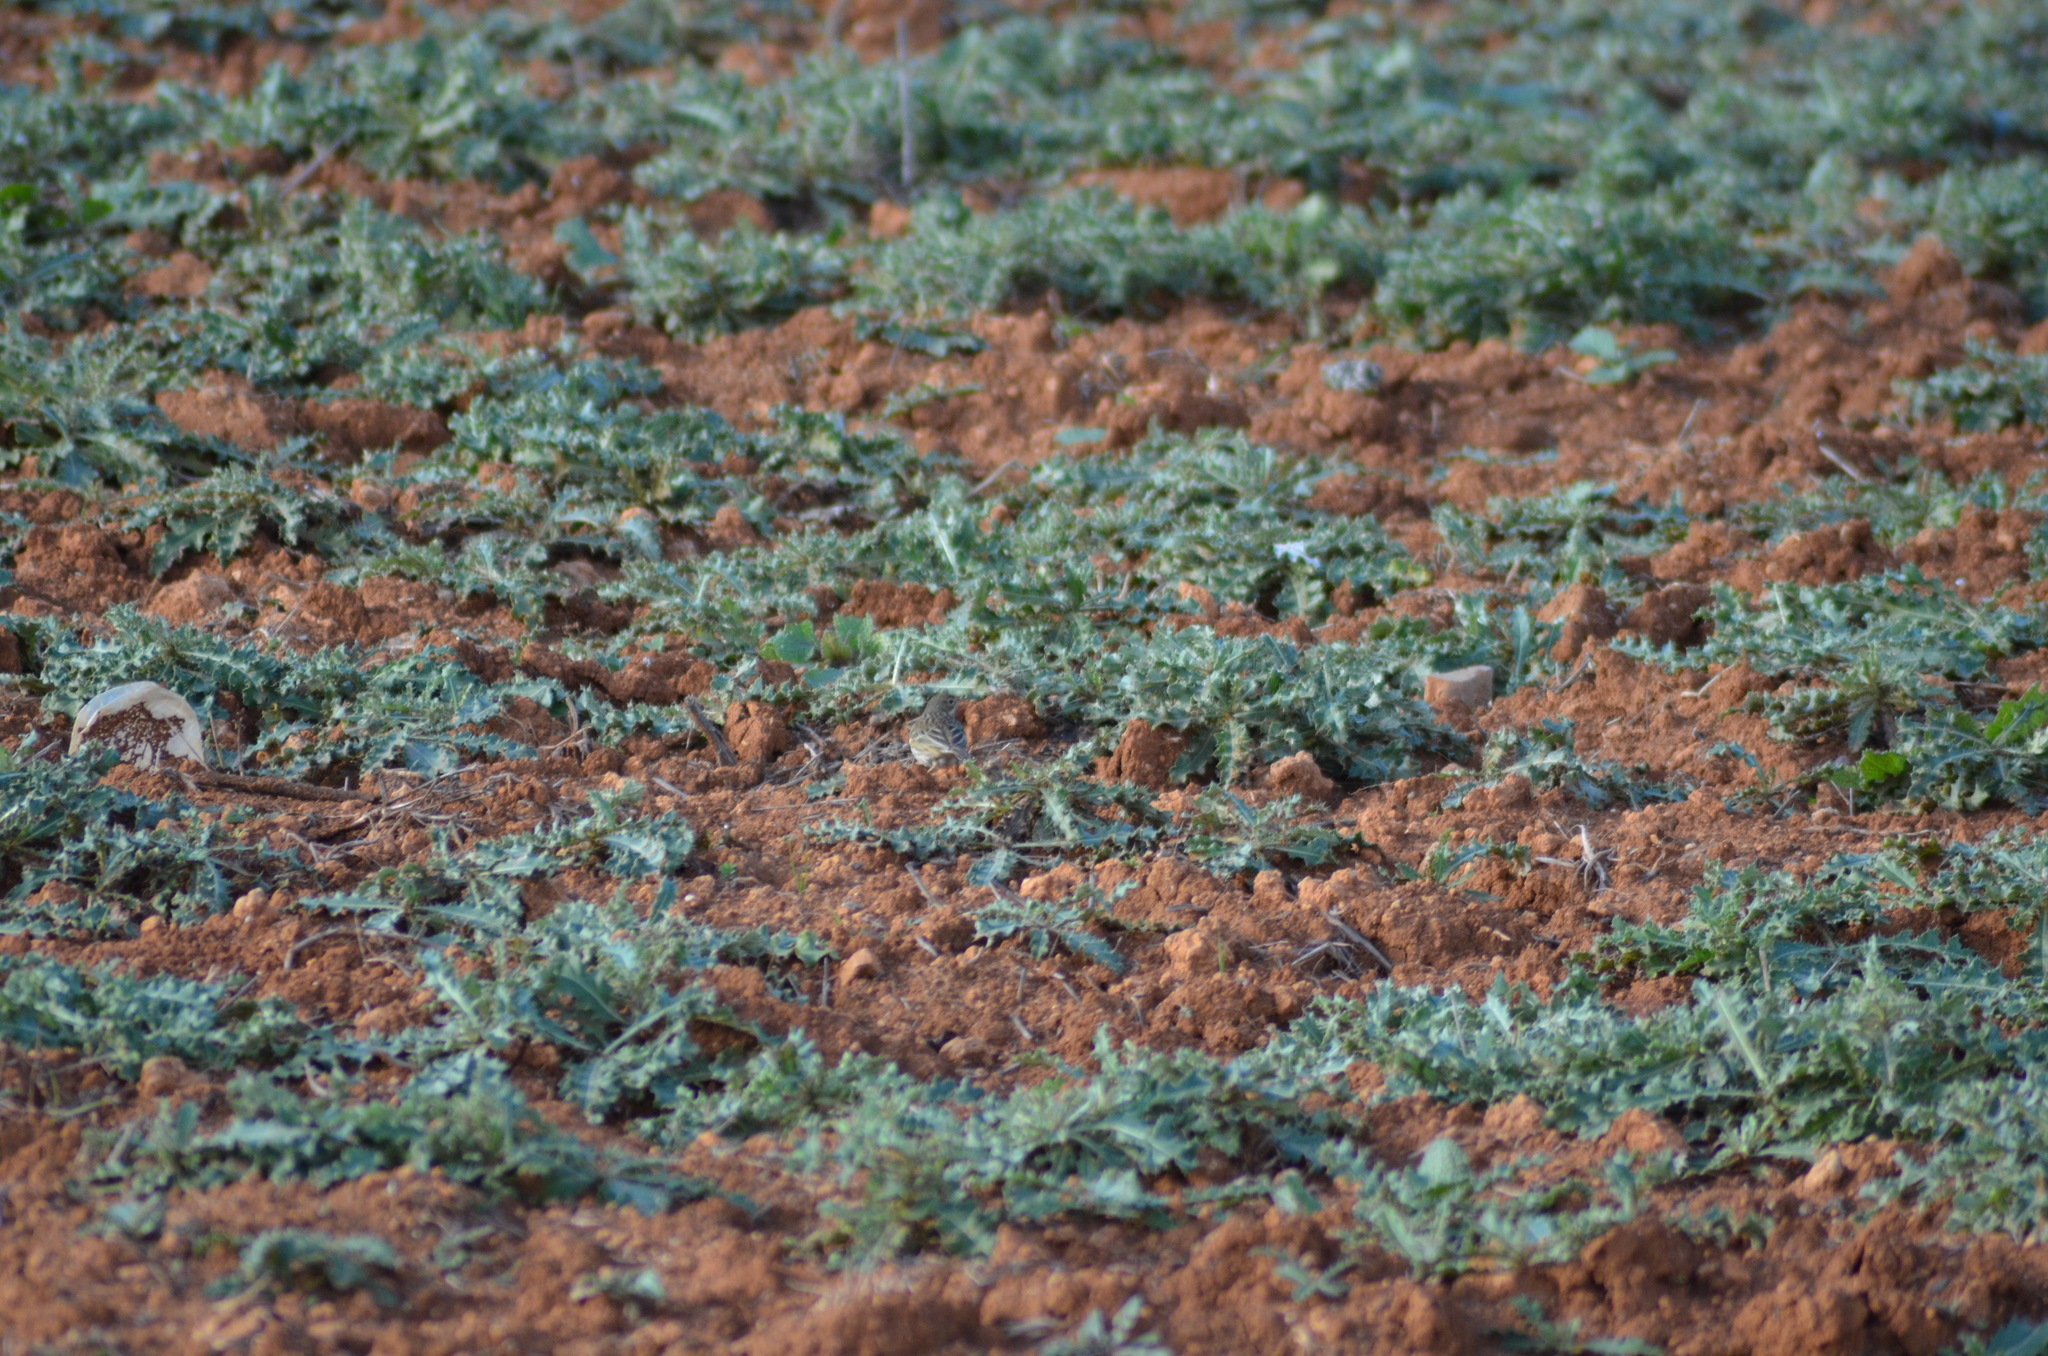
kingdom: Animalia
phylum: Chordata
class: Aves
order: Passeriformes
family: Motacillidae
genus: Anthus
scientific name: Anthus pratensis
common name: Meadow pipit
